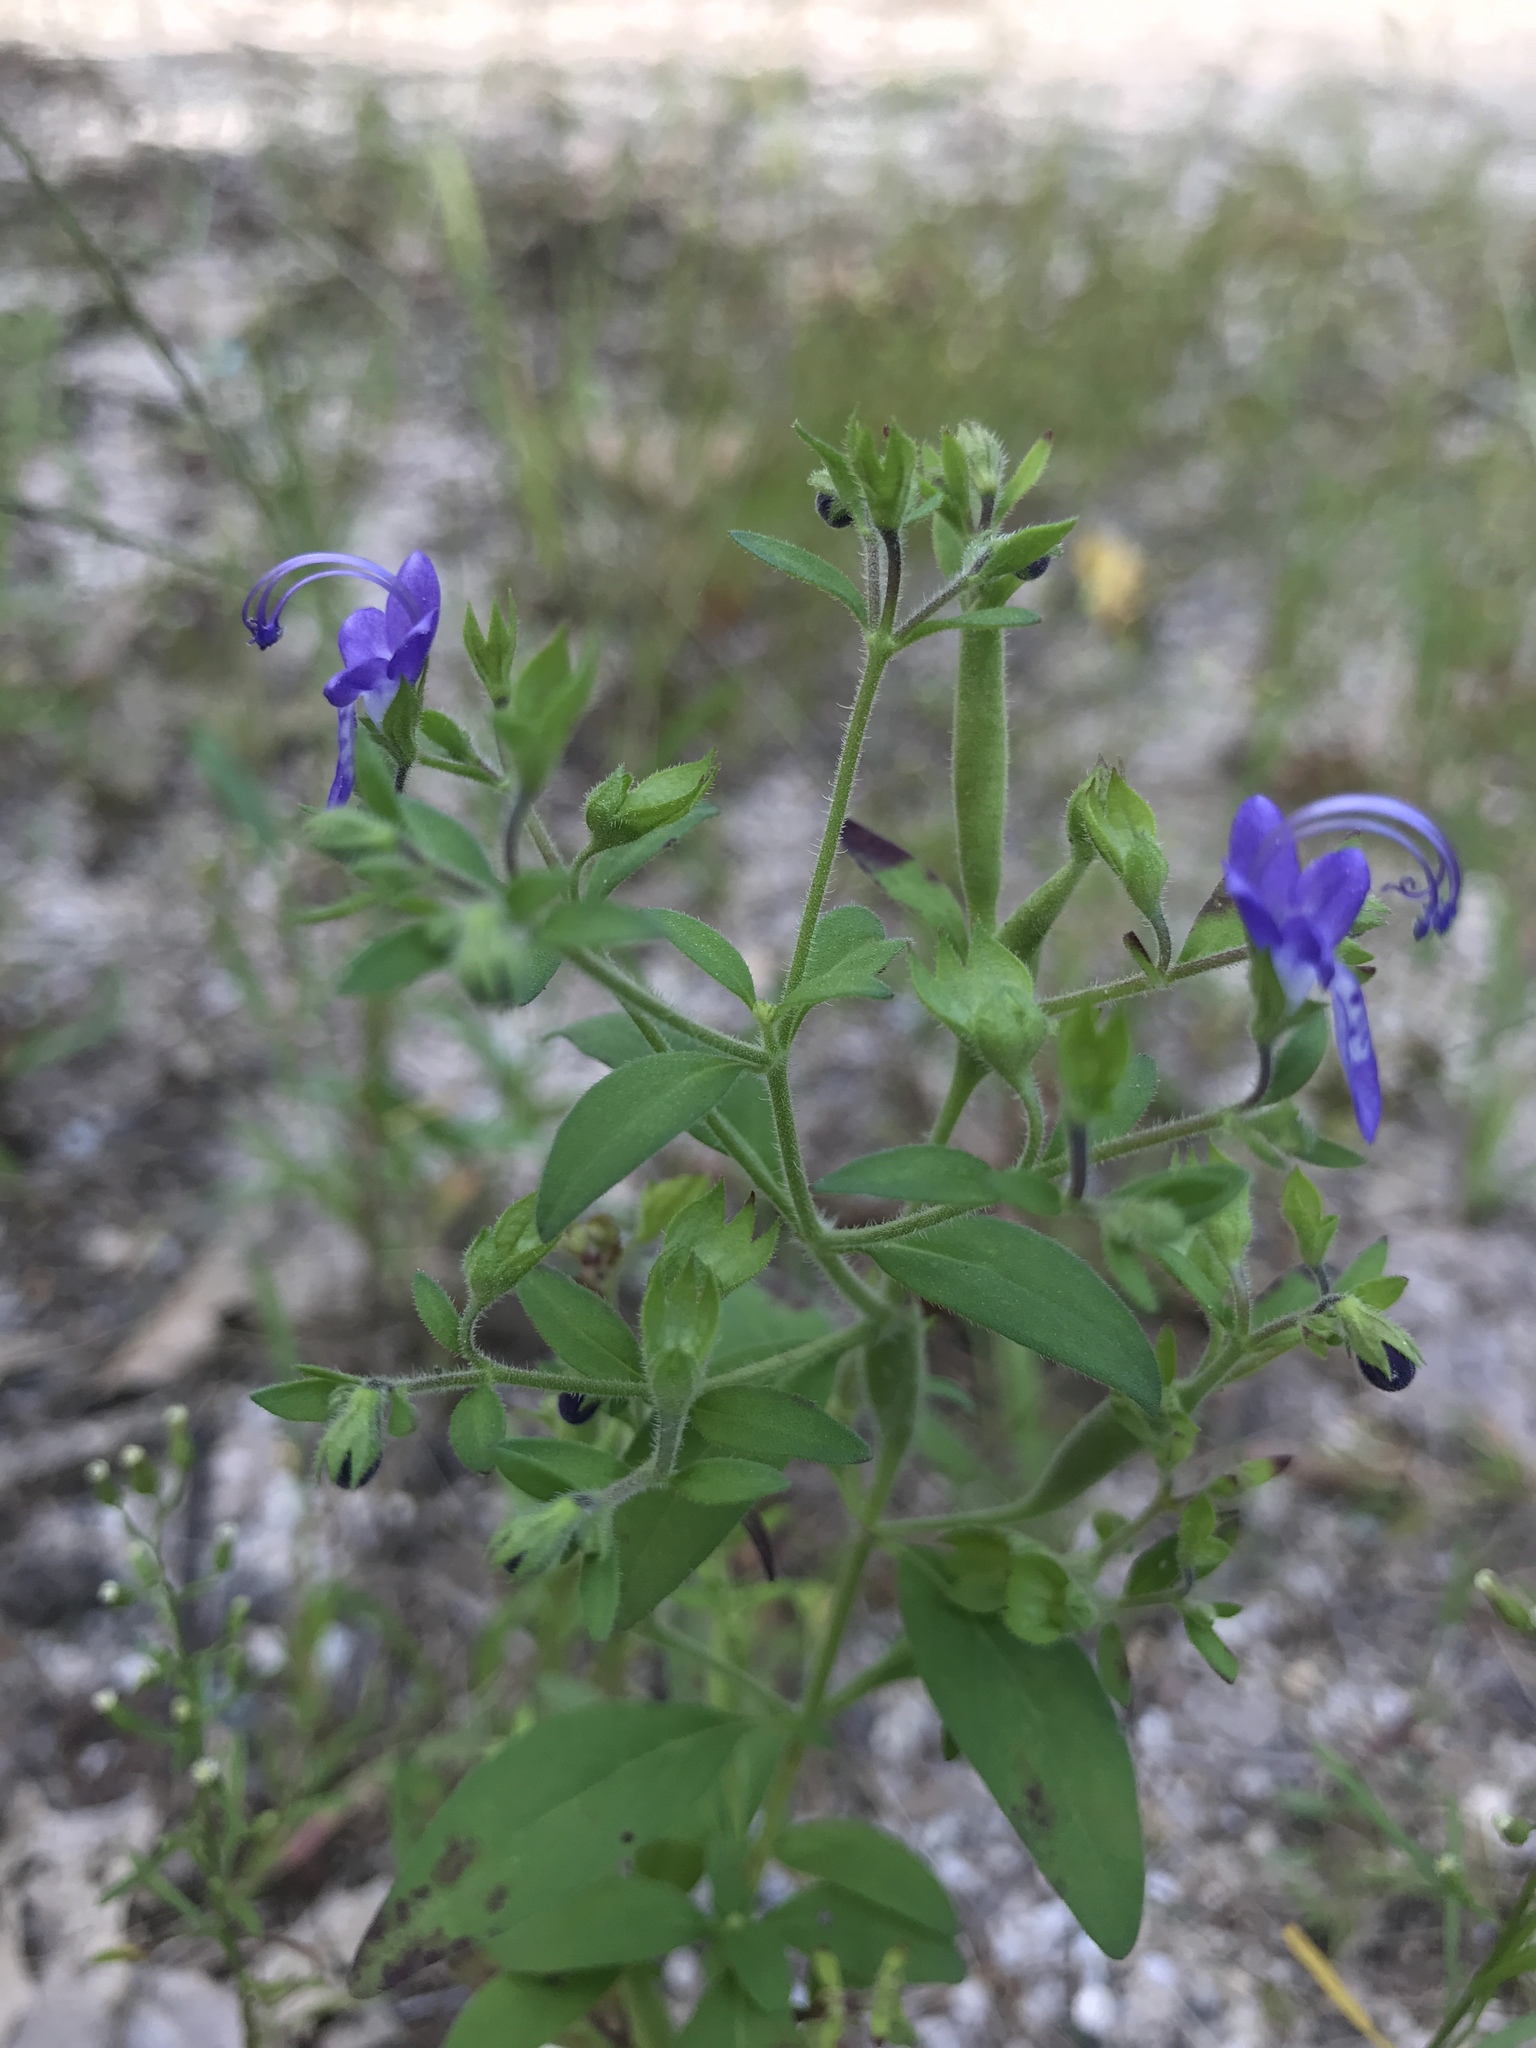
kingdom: Plantae
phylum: Tracheophyta
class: Magnoliopsida
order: Lamiales
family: Lamiaceae
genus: Trichostema
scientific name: Trichostema dichotomum
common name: Bastard pennyroyal
